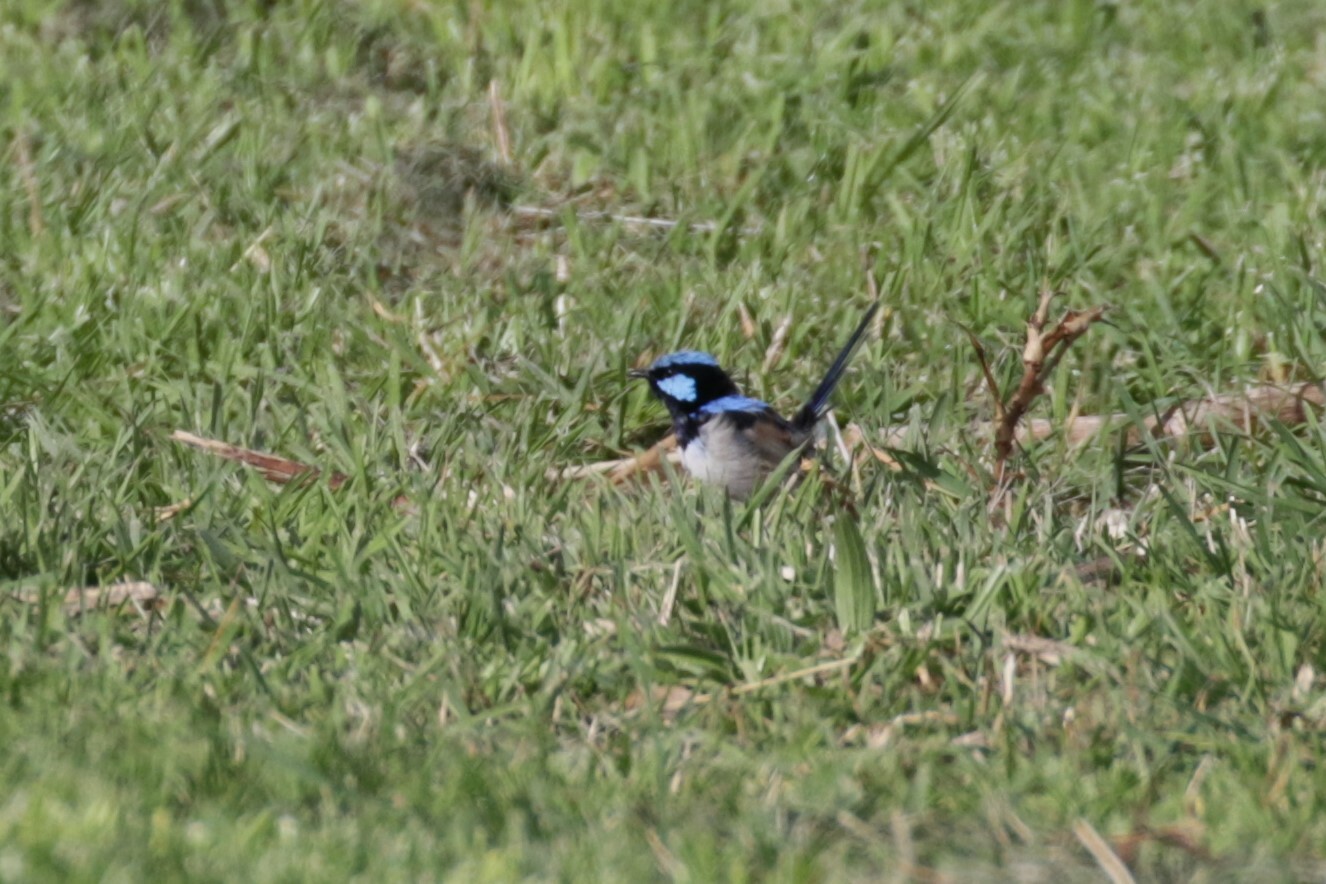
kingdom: Animalia
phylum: Chordata
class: Aves
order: Passeriformes
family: Maluridae
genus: Malurus
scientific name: Malurus cyaneus
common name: Superb fairywren
